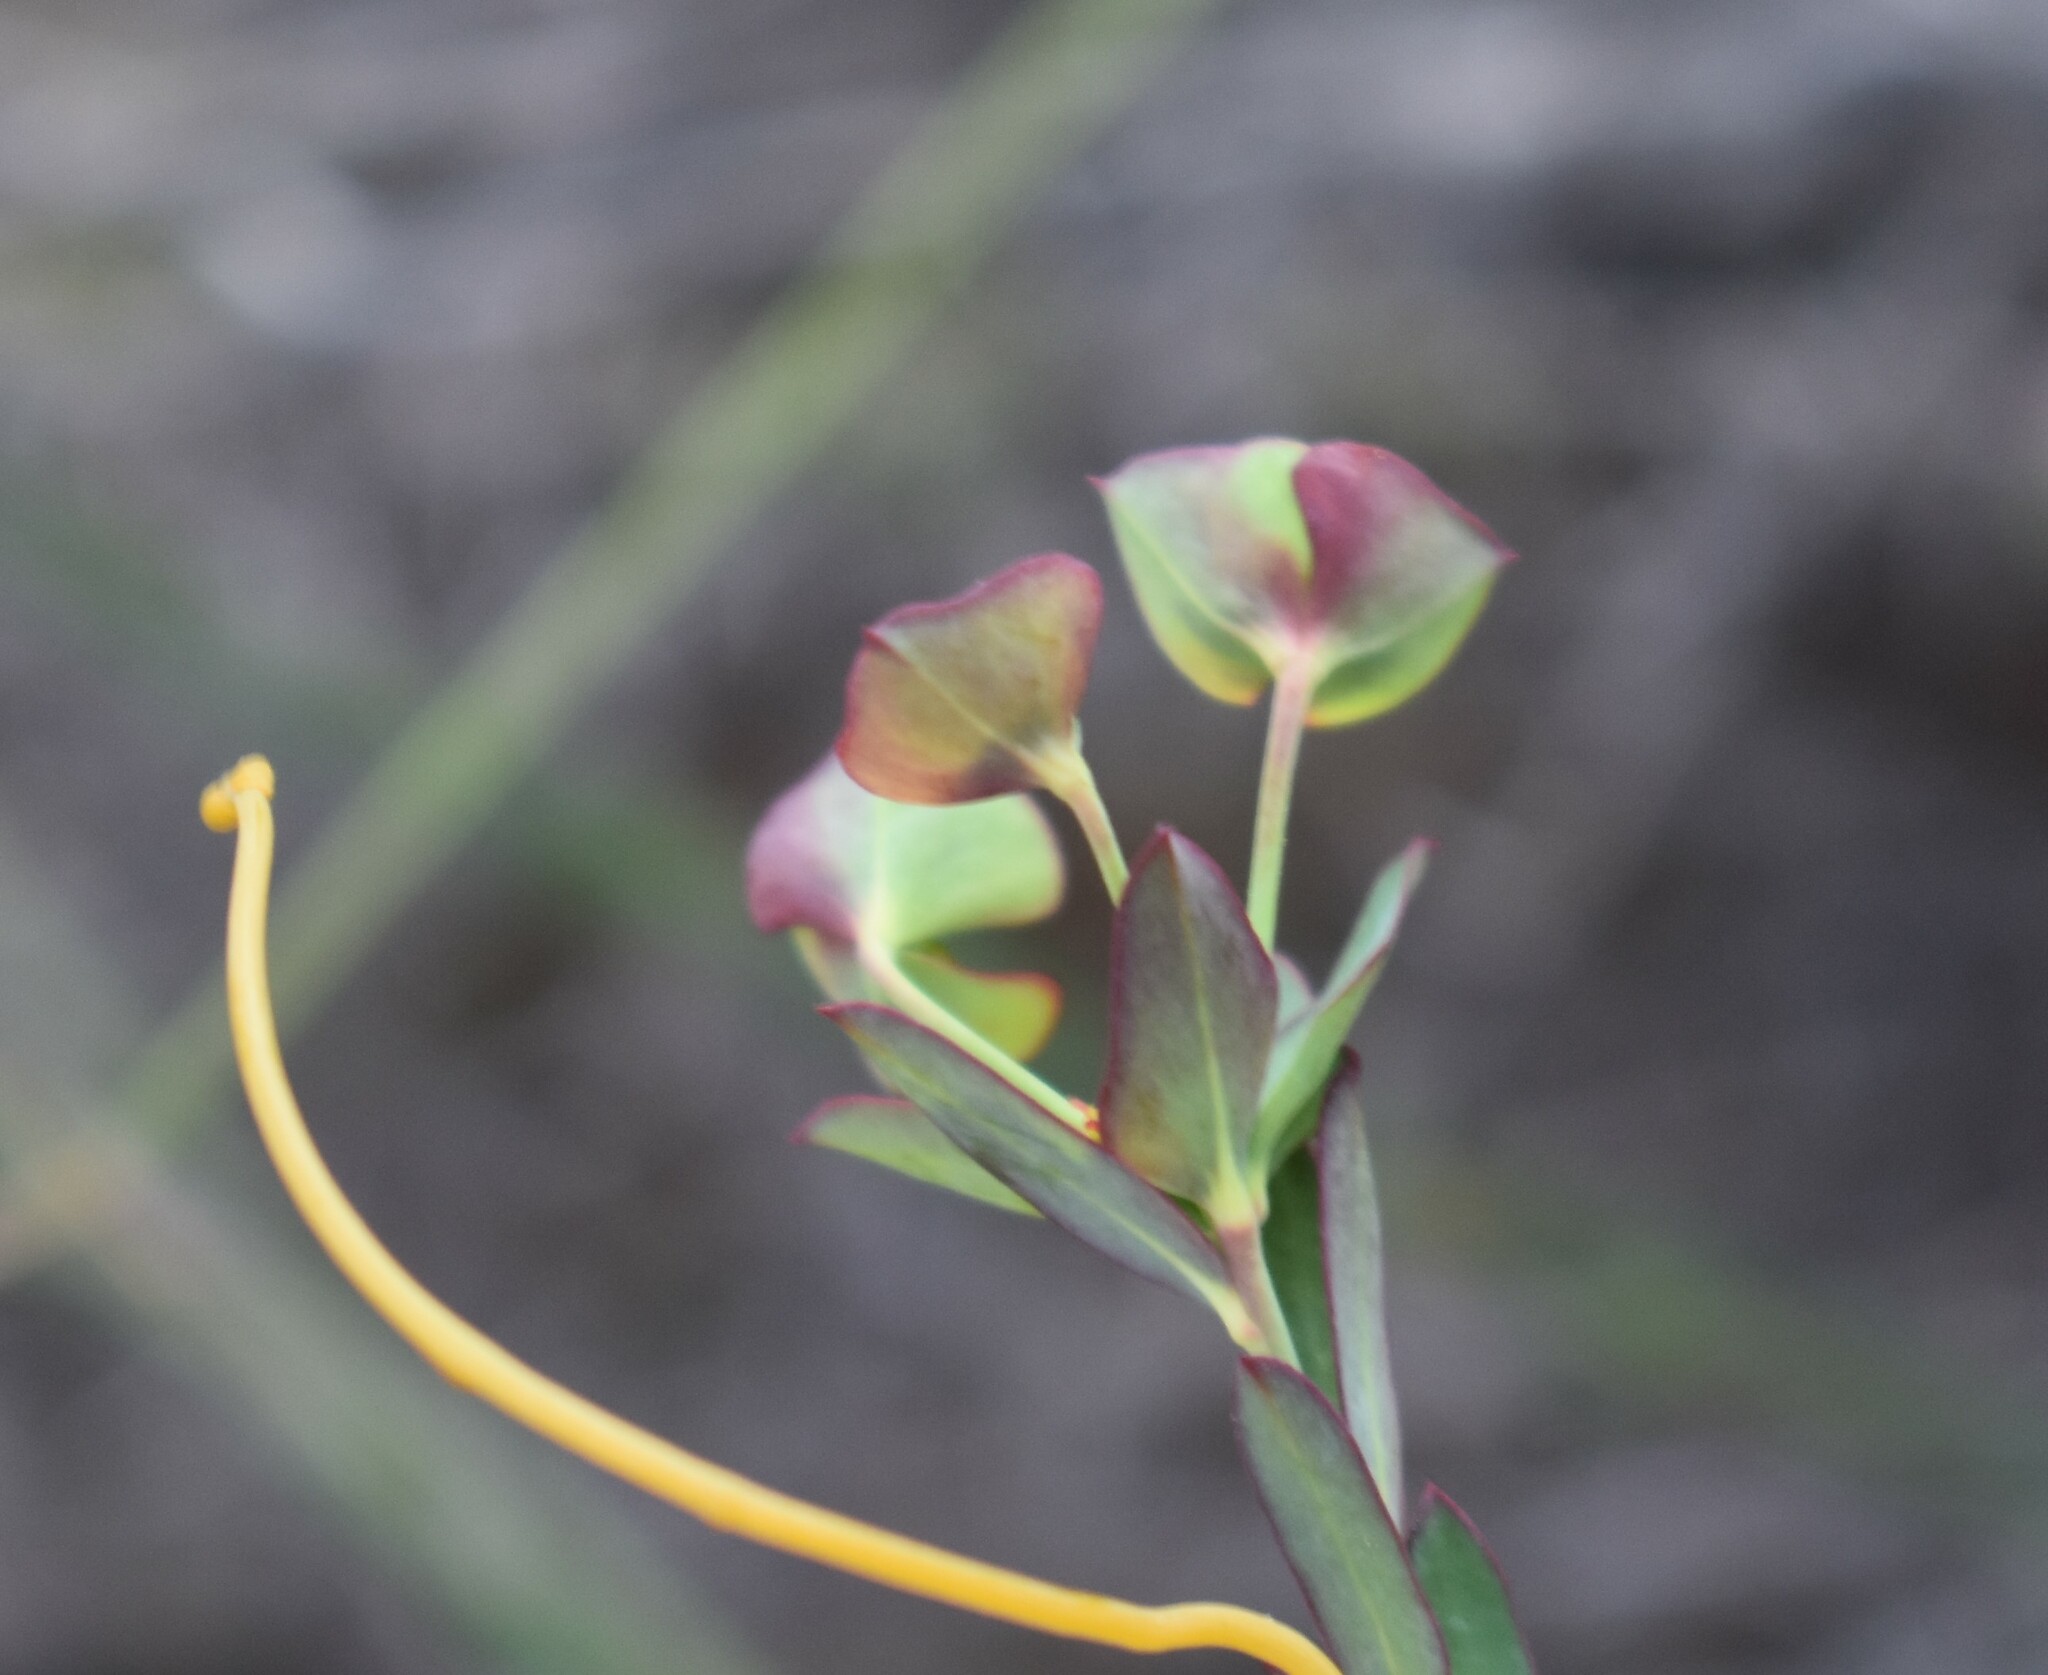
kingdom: Plantae
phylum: Tracheophyta
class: Magnoliopsida
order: Malpighiales
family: Euphorbiaceae
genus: Euphorbia
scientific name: Euphorbia genistoides
